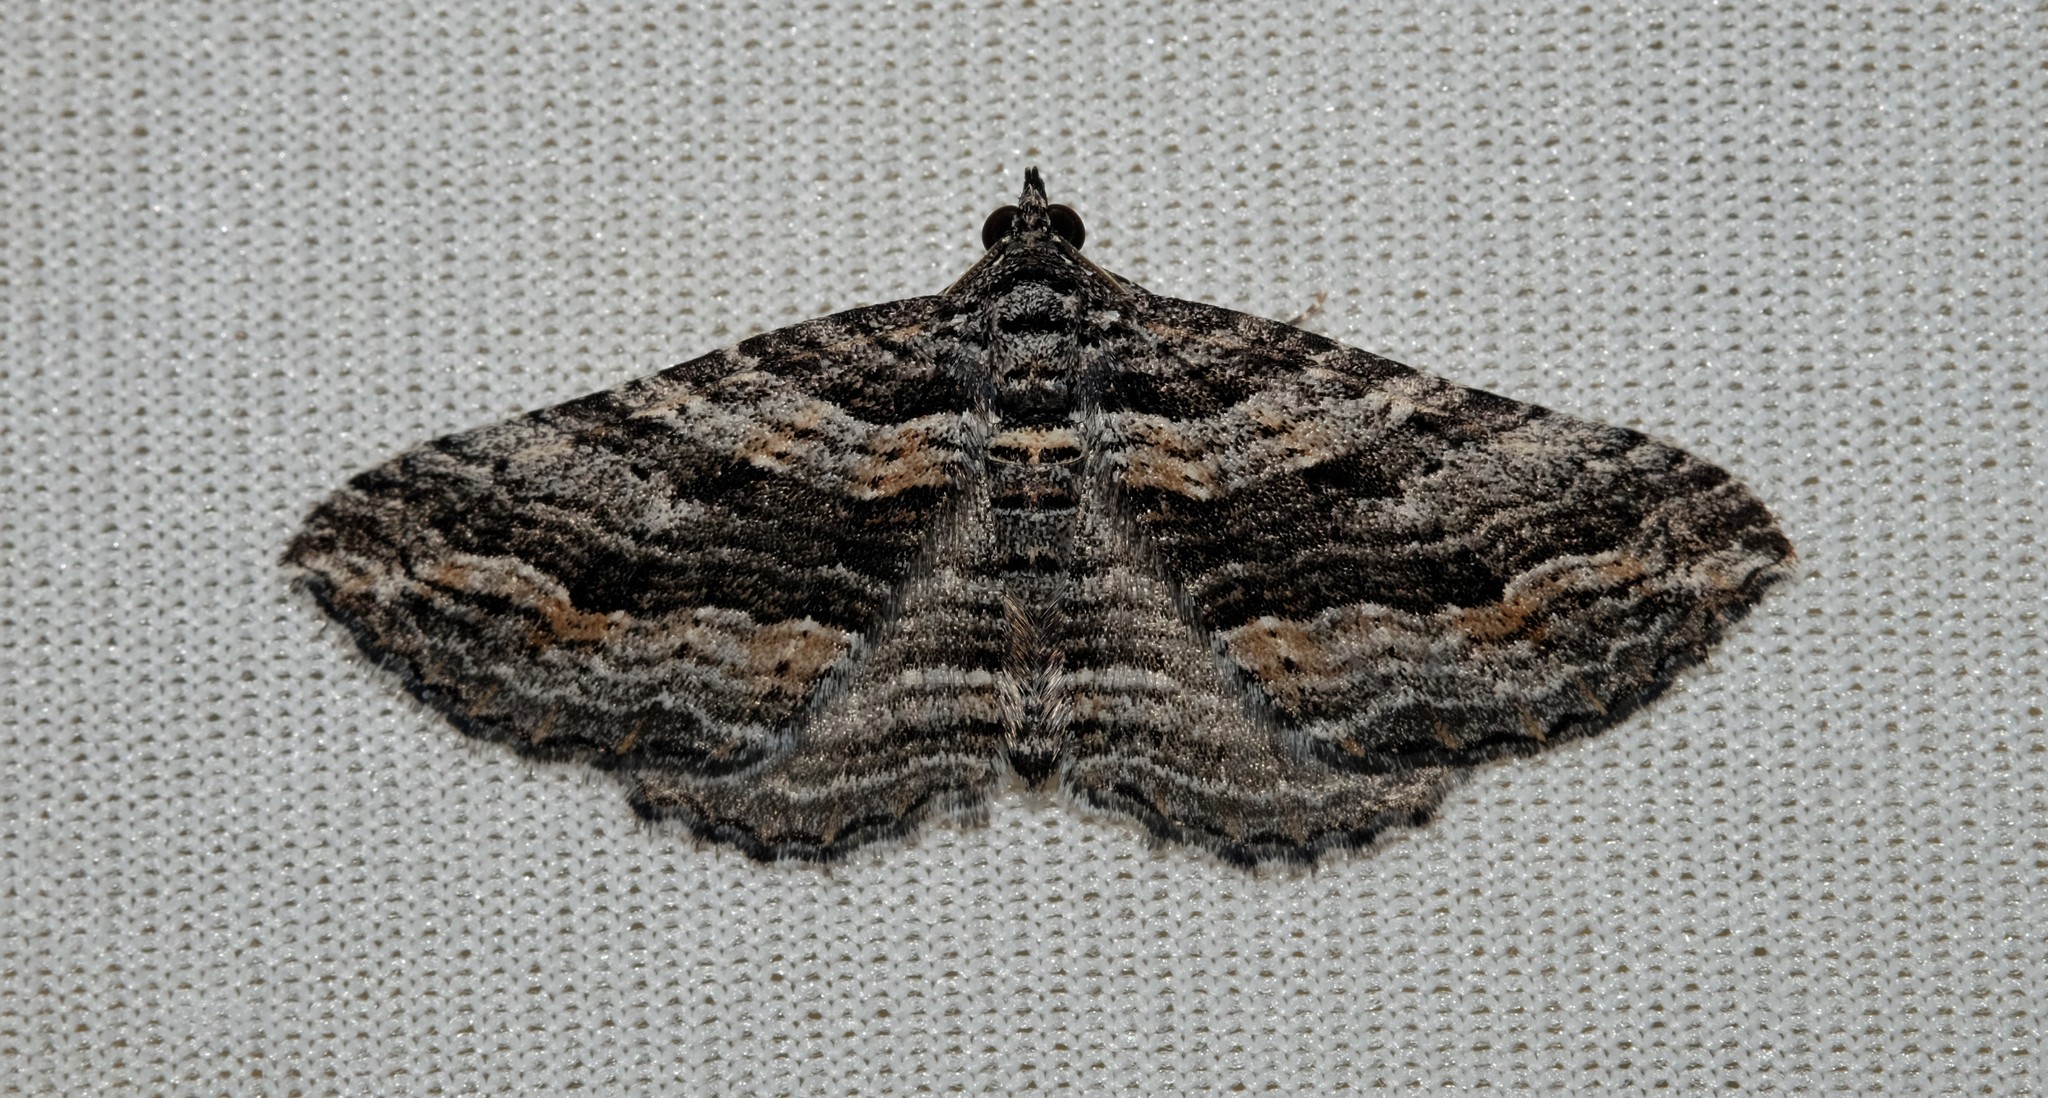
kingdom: Animalia
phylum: Arthropoda
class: Insecta
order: Lepidoptera
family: Geometridae
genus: Chrysolarentia
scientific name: Chrysolarentia severata
